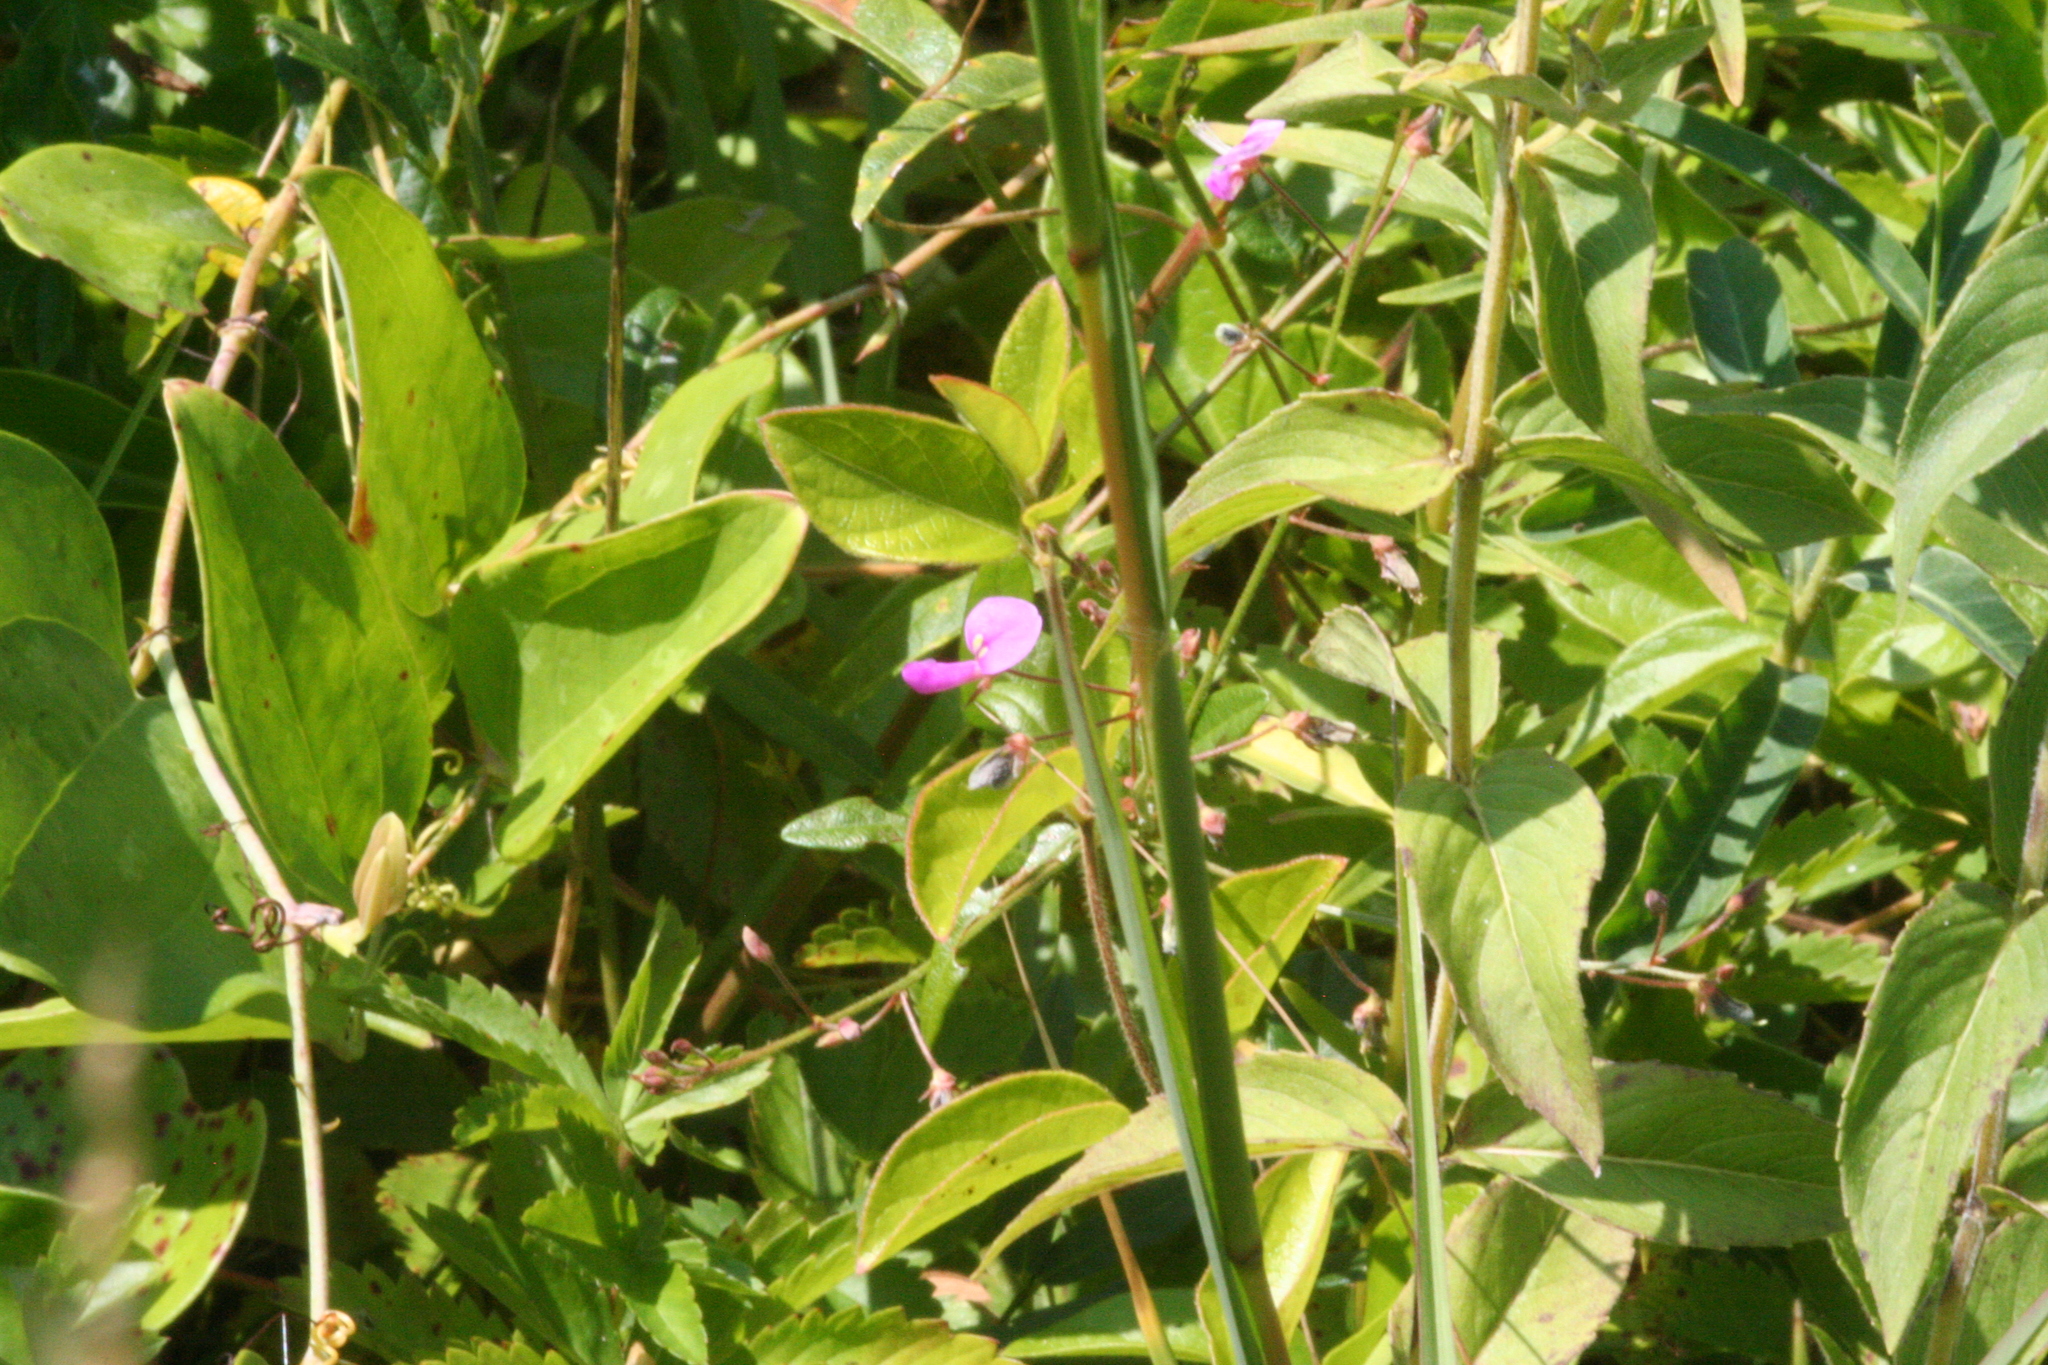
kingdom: Plantae
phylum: Tracheophyta
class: Magnoliopsida
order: Fabales
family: Fabaceae
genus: Desmodium
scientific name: Desmodium
